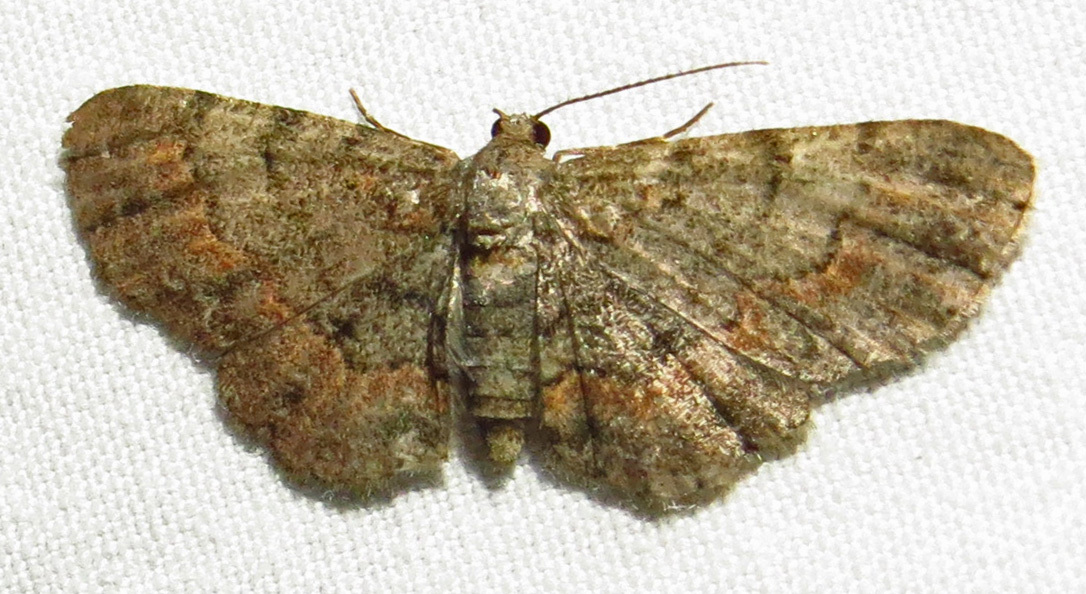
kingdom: Animalia
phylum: Arthropoda
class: Insecta
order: Lepidoptera
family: Geometridae
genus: Glenoides
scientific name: Glenoides texanaria
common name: Texas gray
